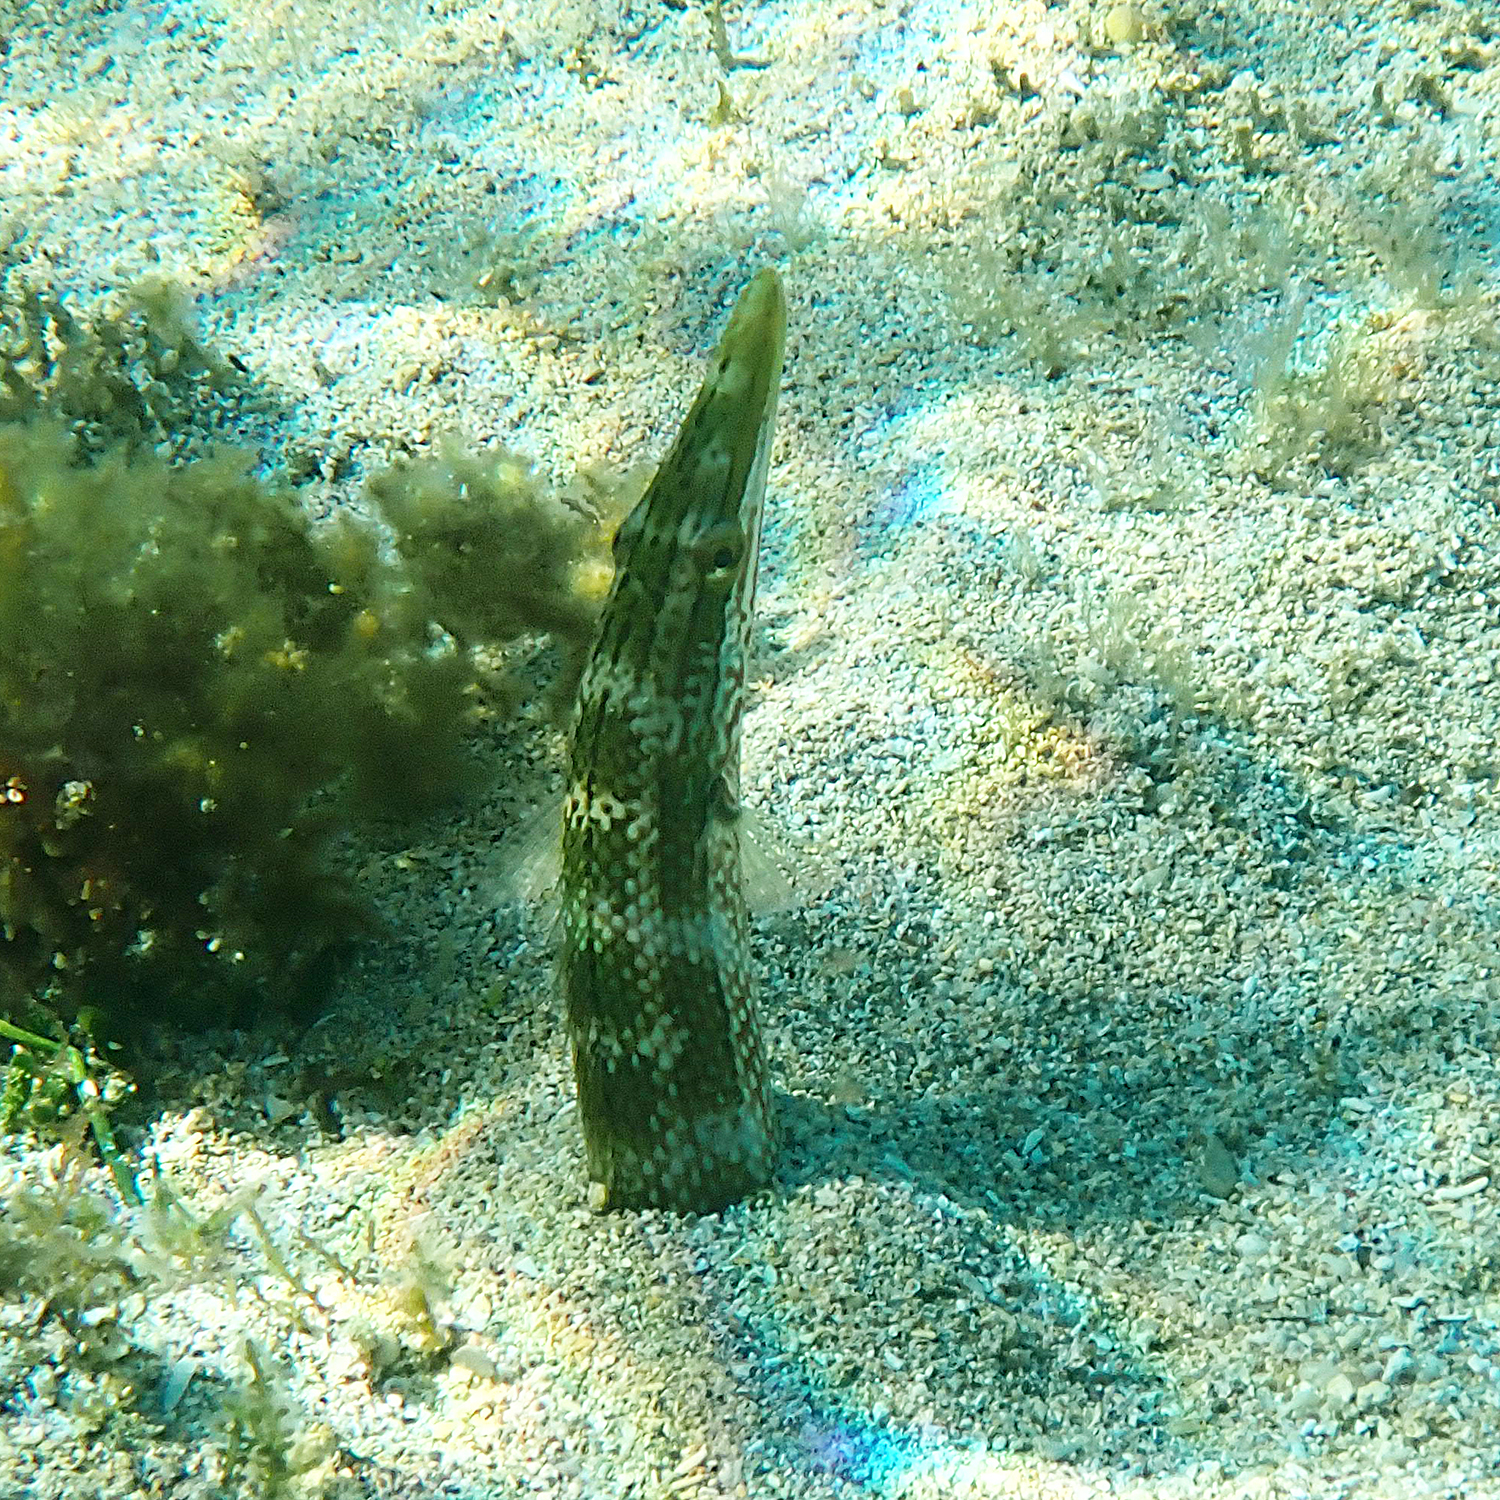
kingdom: Animalia
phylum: Chordata
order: Perciformes
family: Labridae
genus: Cheilio
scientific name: Cheilio inermis
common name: Cigar wrasse
